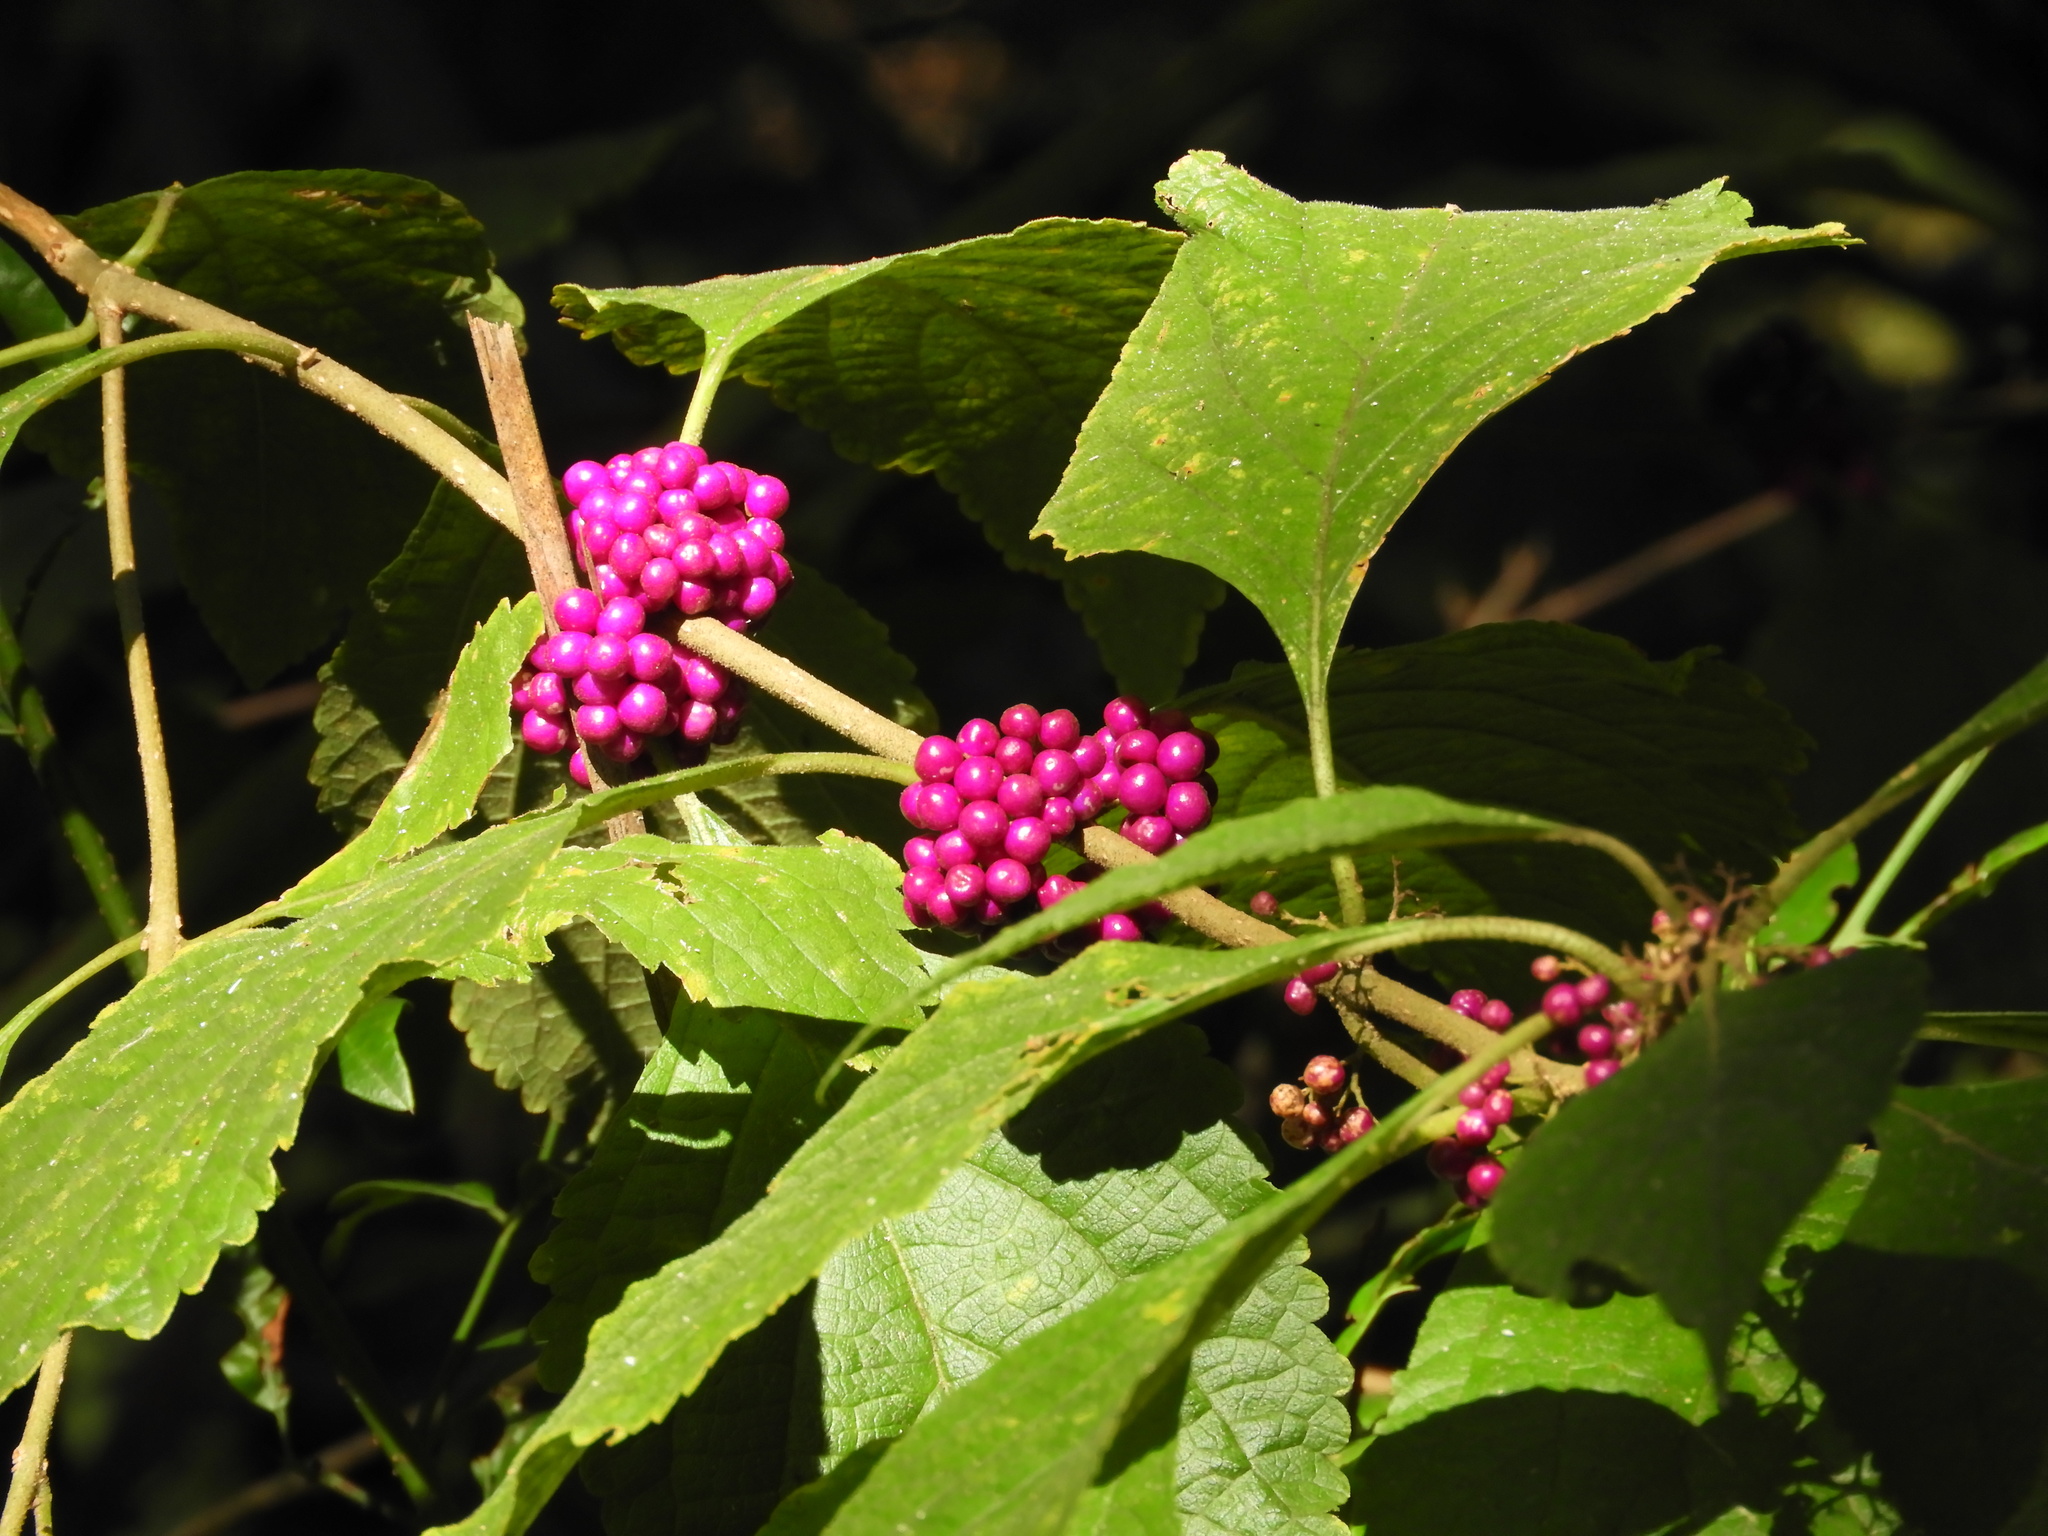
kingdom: Plantae
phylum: Tracheophyta
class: Magnoliopsida
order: Lamiales
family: Lamiaceae
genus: Callicarpa
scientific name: Callicarpa americana
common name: American beautyberry
